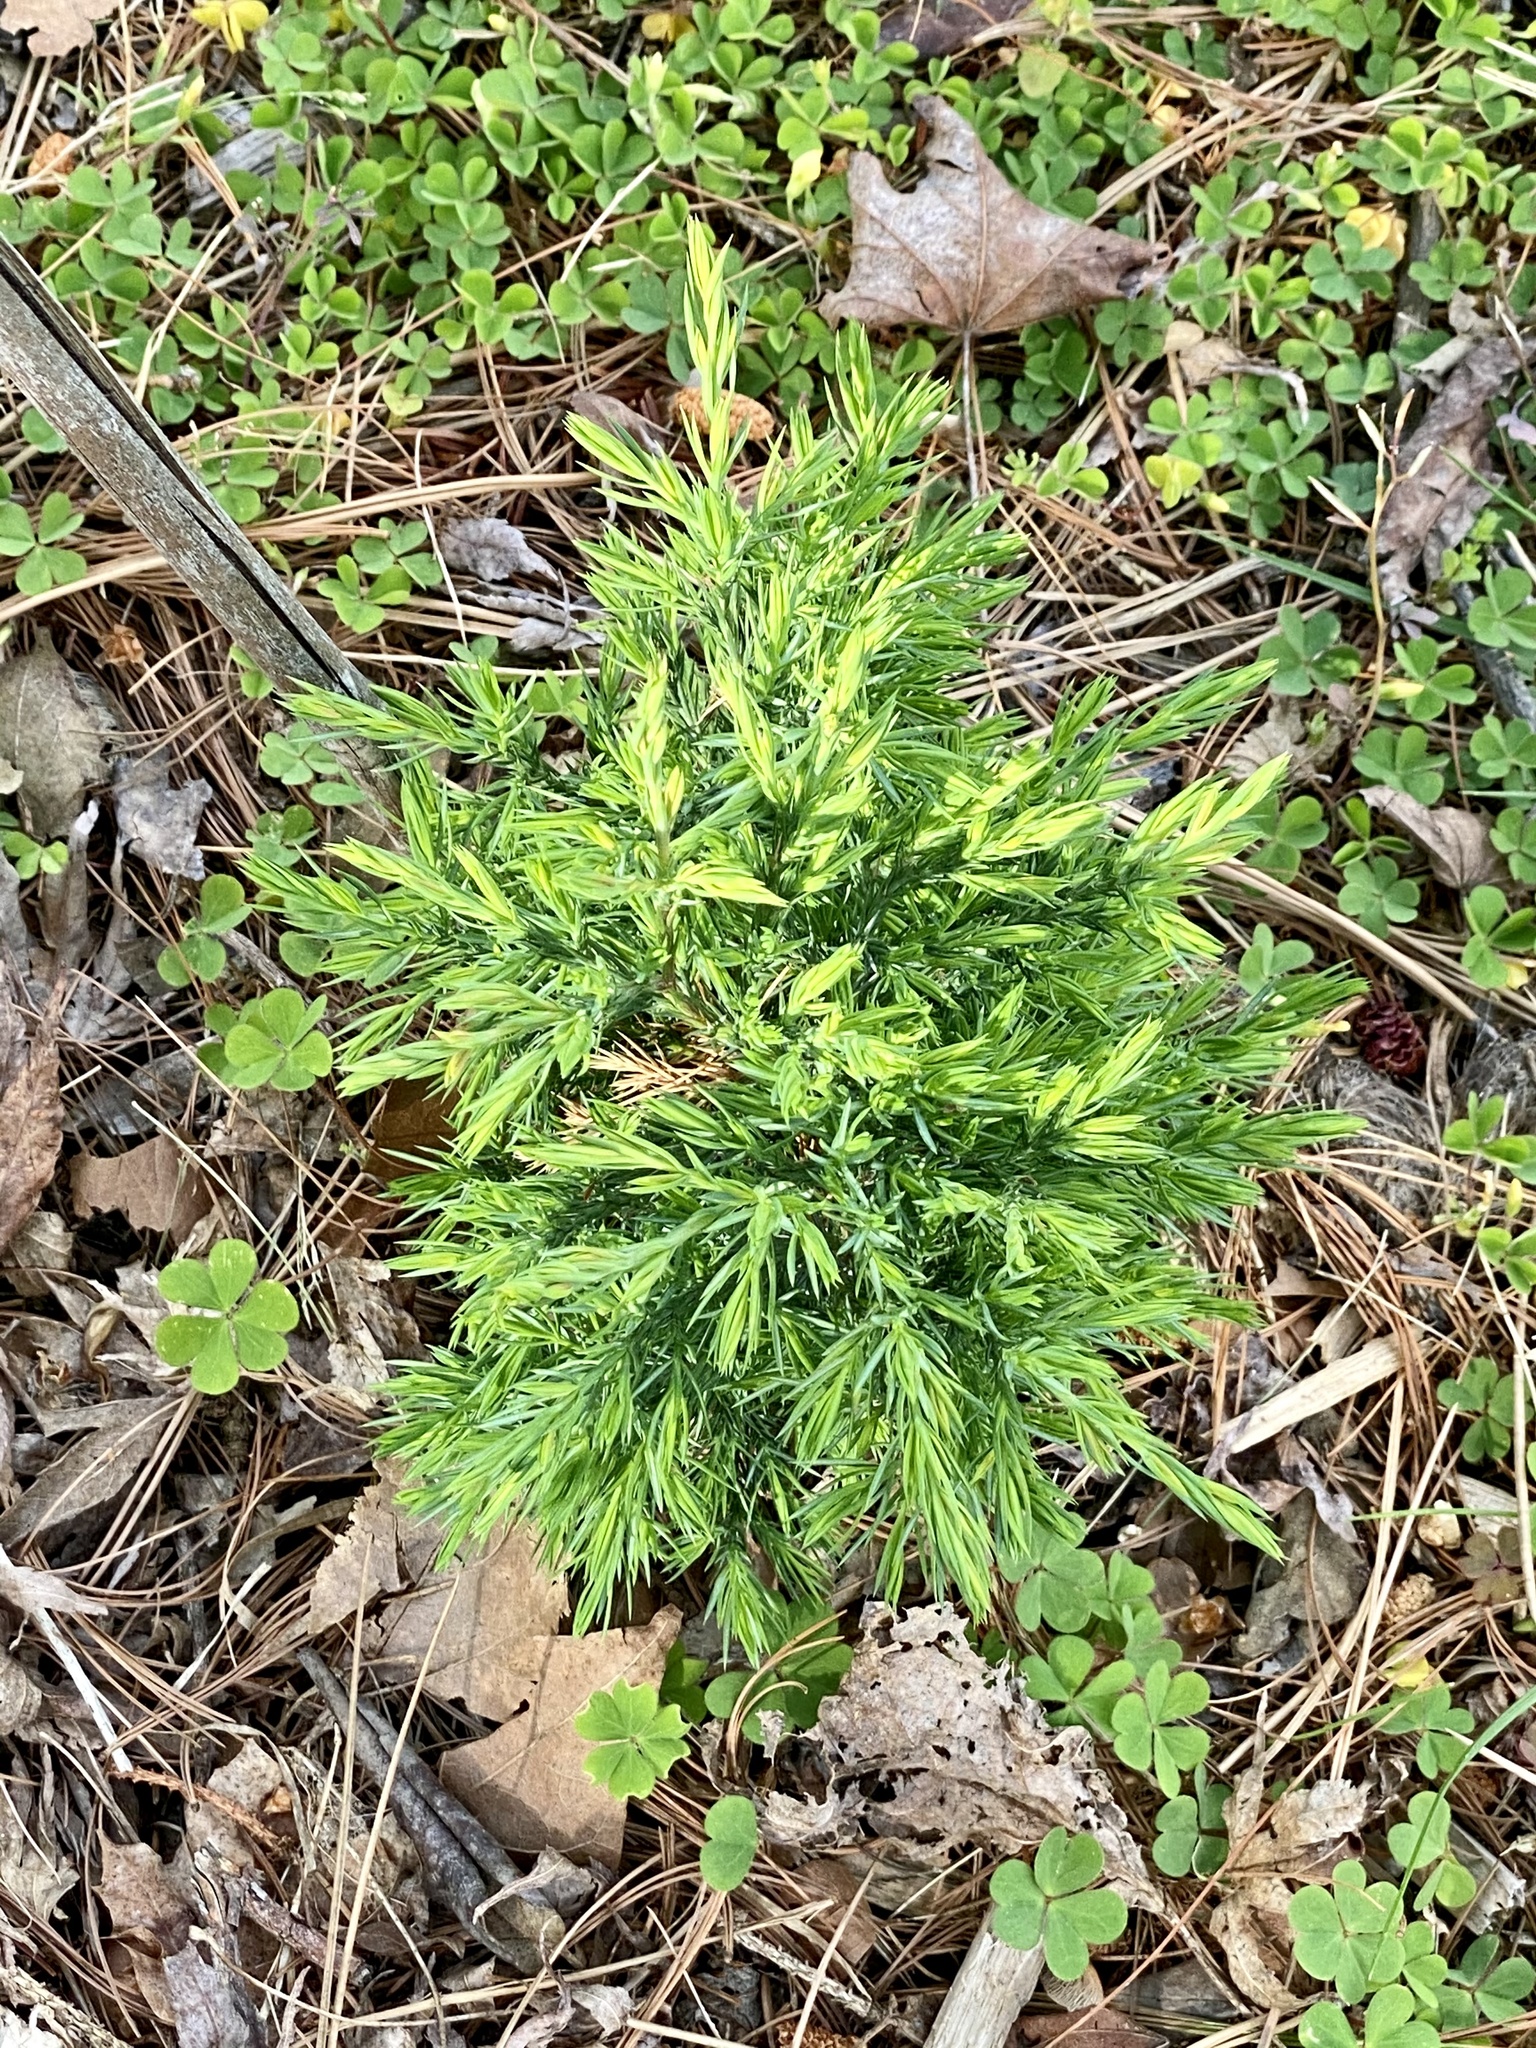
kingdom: Plantae
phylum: Tracheophyta
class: Pinopsida
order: Pinales
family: Cupressaceae
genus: Juniperus
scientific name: Juniperus virginiana
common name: Red juniper
